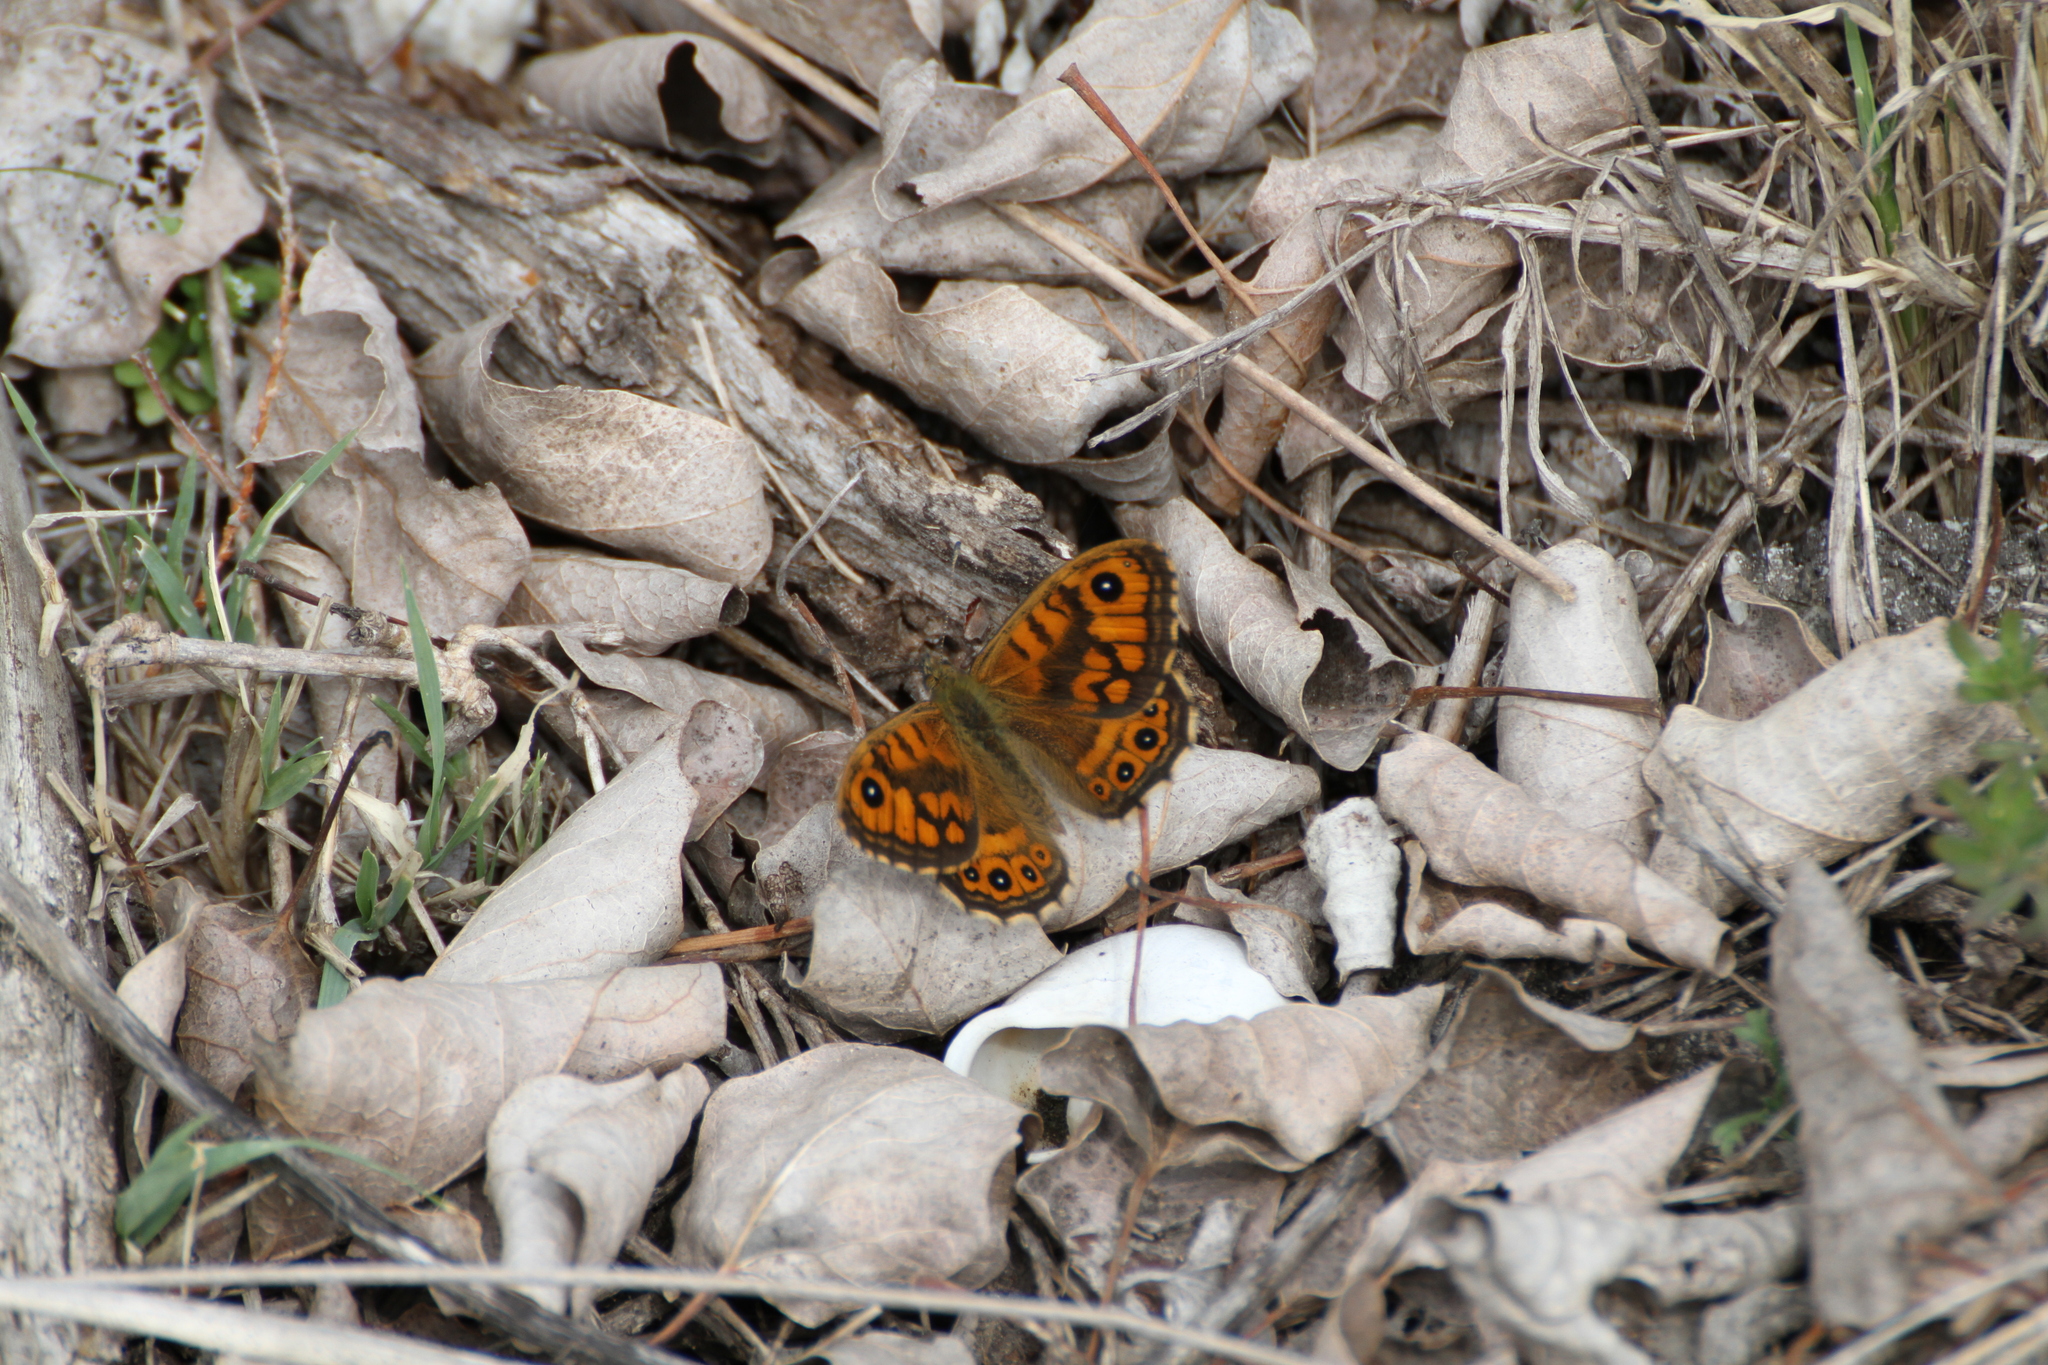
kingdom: Animalia
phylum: Arthropoda
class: Insecta
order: Lepidoptera
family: Nymphalidae
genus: Pararge
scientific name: Pararge Lasiommata megera
